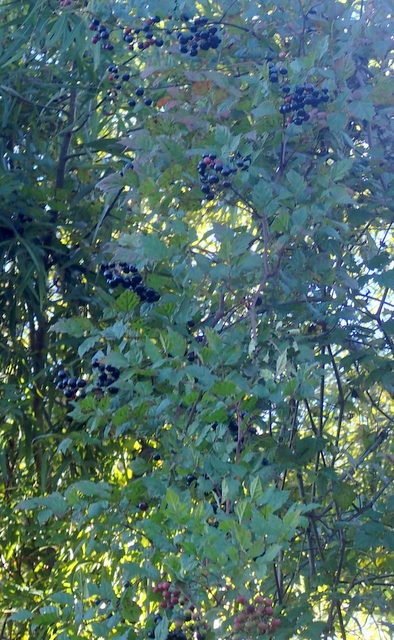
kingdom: Plantae
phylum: Tracheophyta
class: Magnoliopsida
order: Vitales
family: Vitaceae
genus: Nekemias
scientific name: Nekemias arborea
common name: Peppervine
